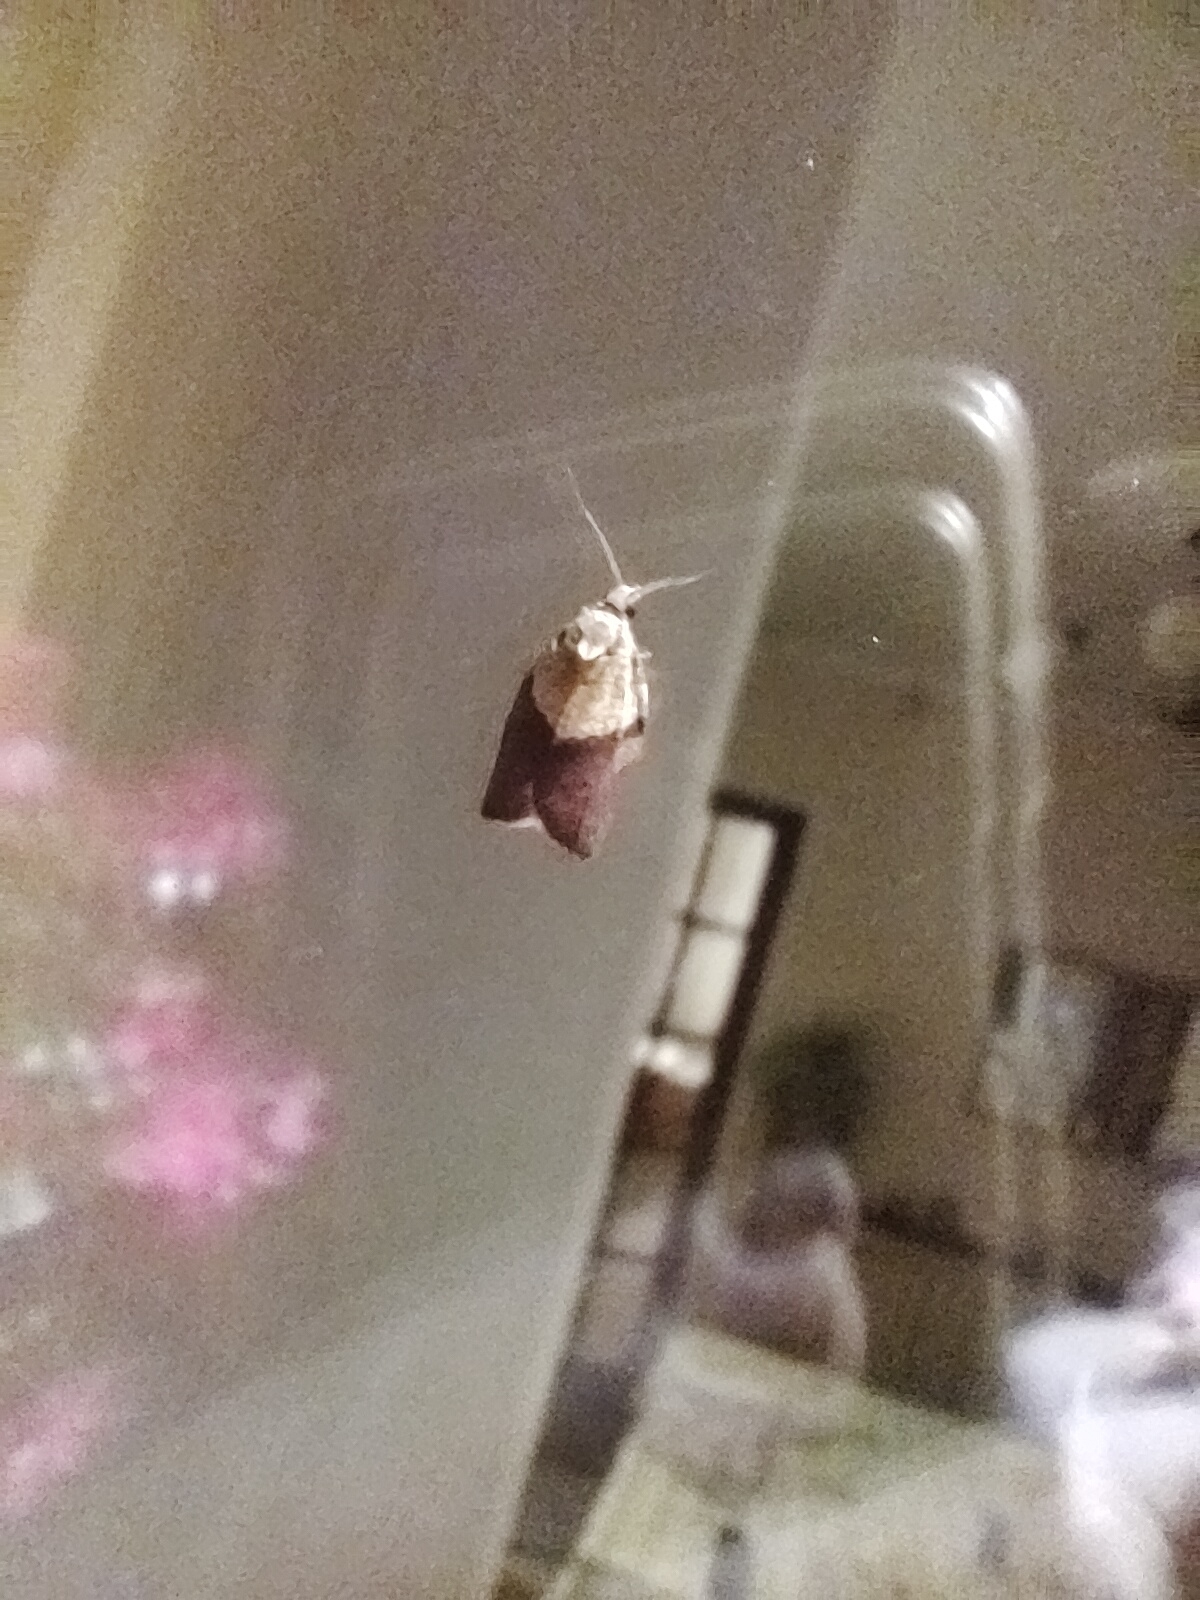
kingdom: Animalia
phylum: Arthropoda
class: Insecta
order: Lepidoptera
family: Tortricidae
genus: Epiphyas
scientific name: Epiphyas postvittana
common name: Light brown apple moth
